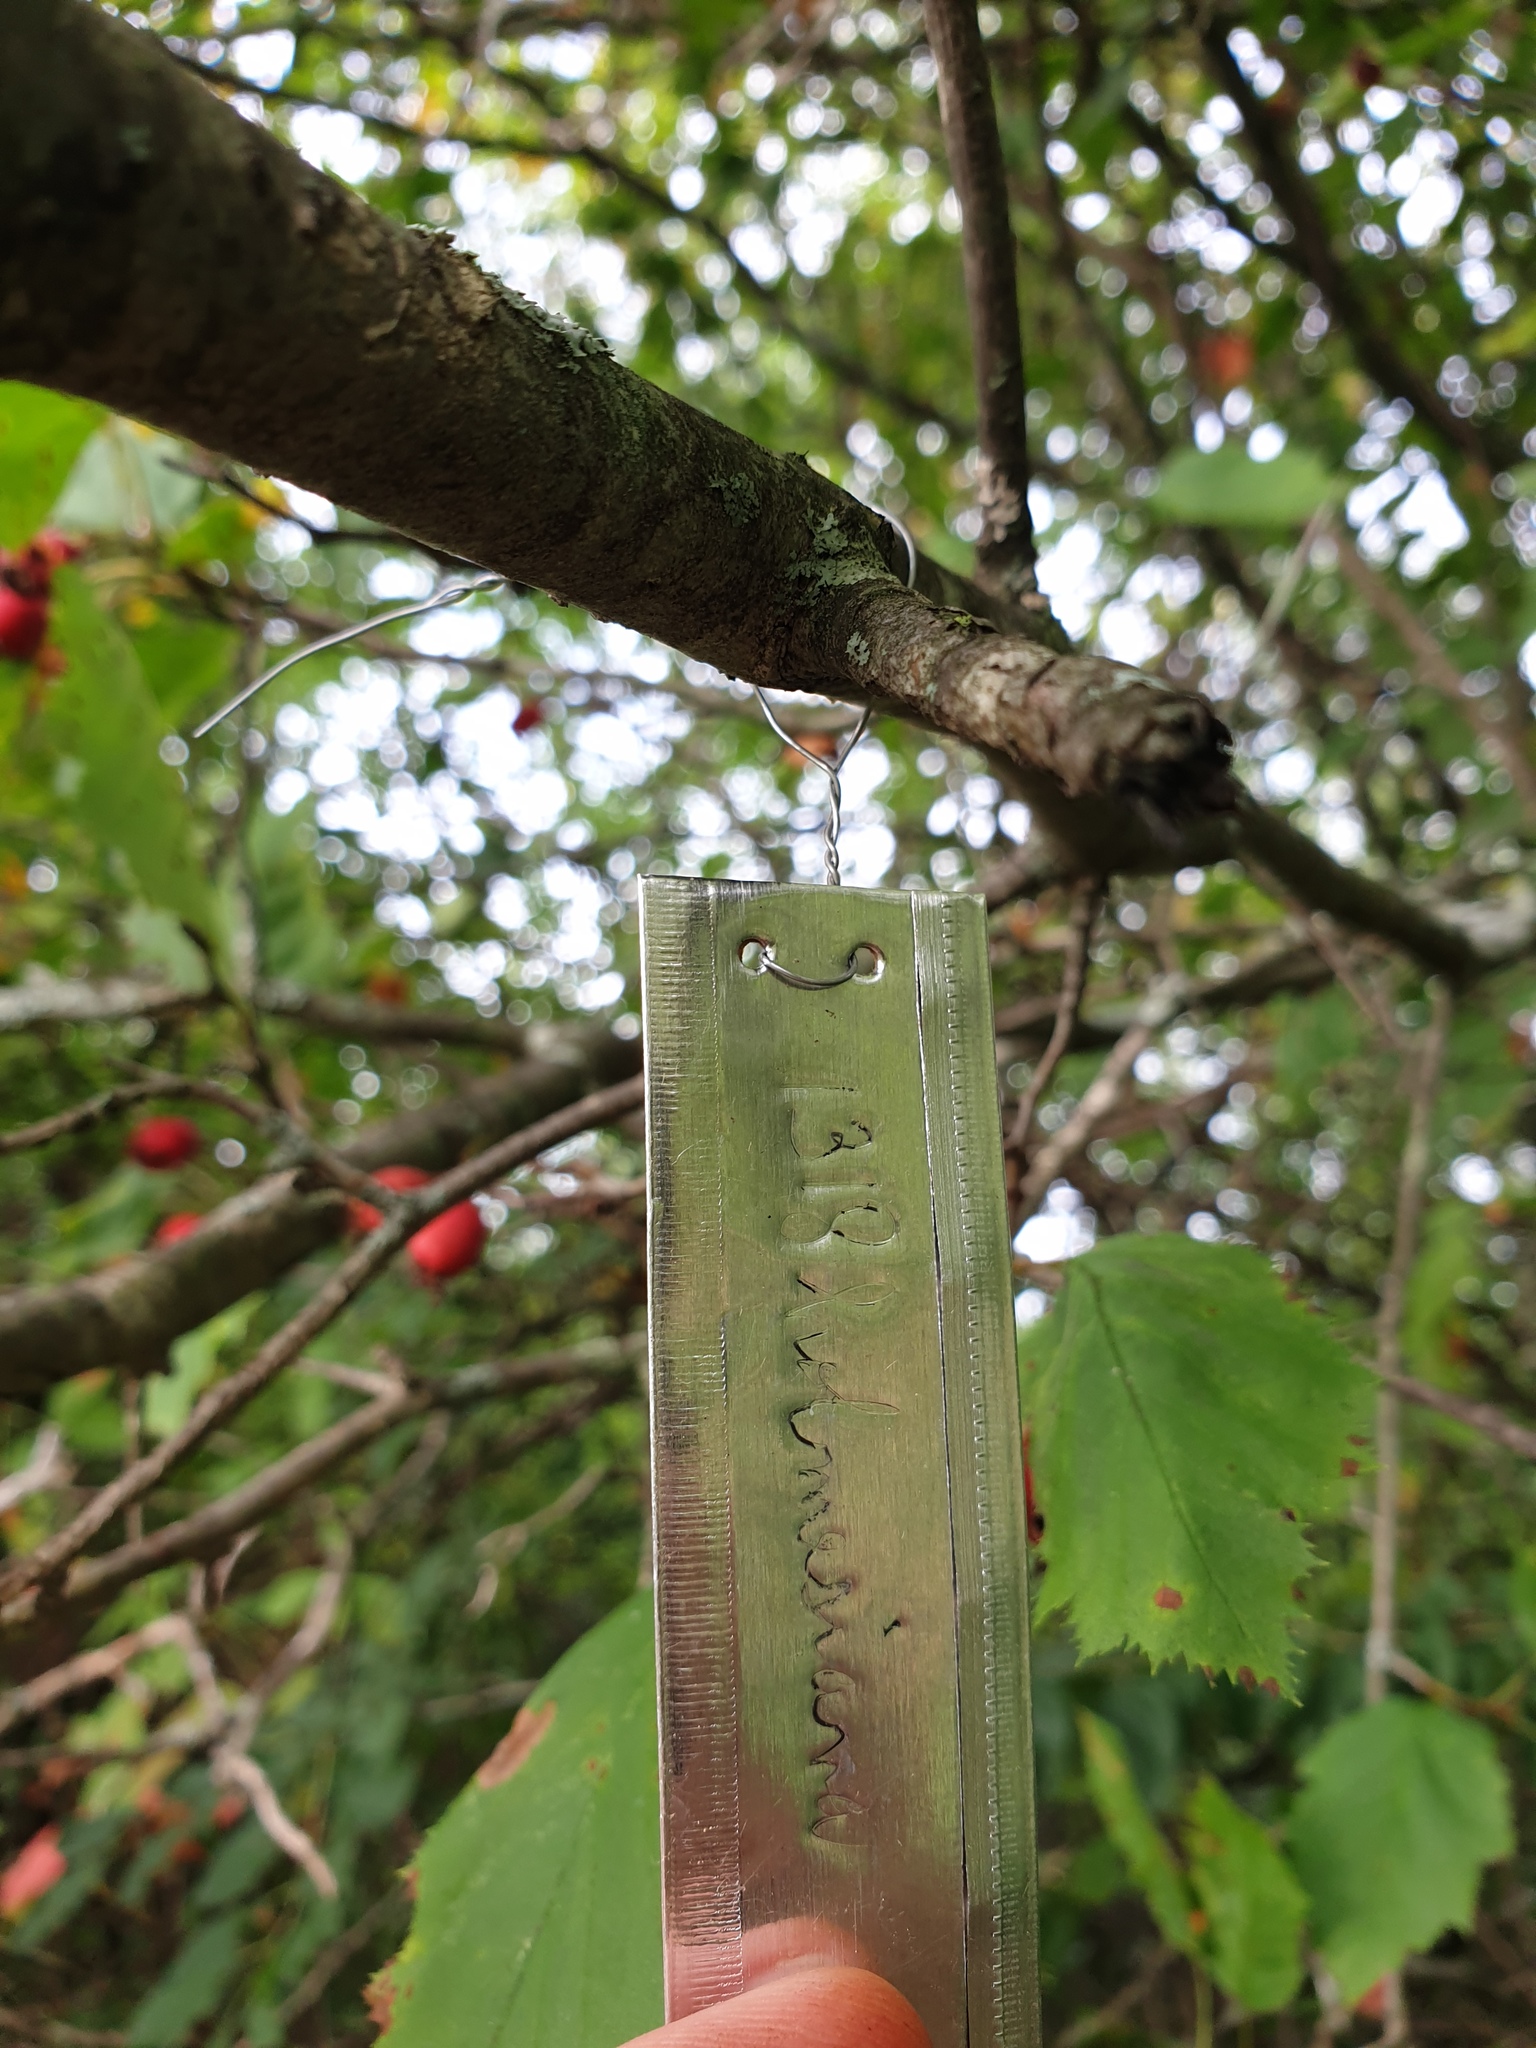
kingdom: Plantae
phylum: Tracheophyta
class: Magnoliopsida
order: Rosales
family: Rosaceae
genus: Crataegus
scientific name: Crataegus holmesiana
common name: Holmes' hawthorn
